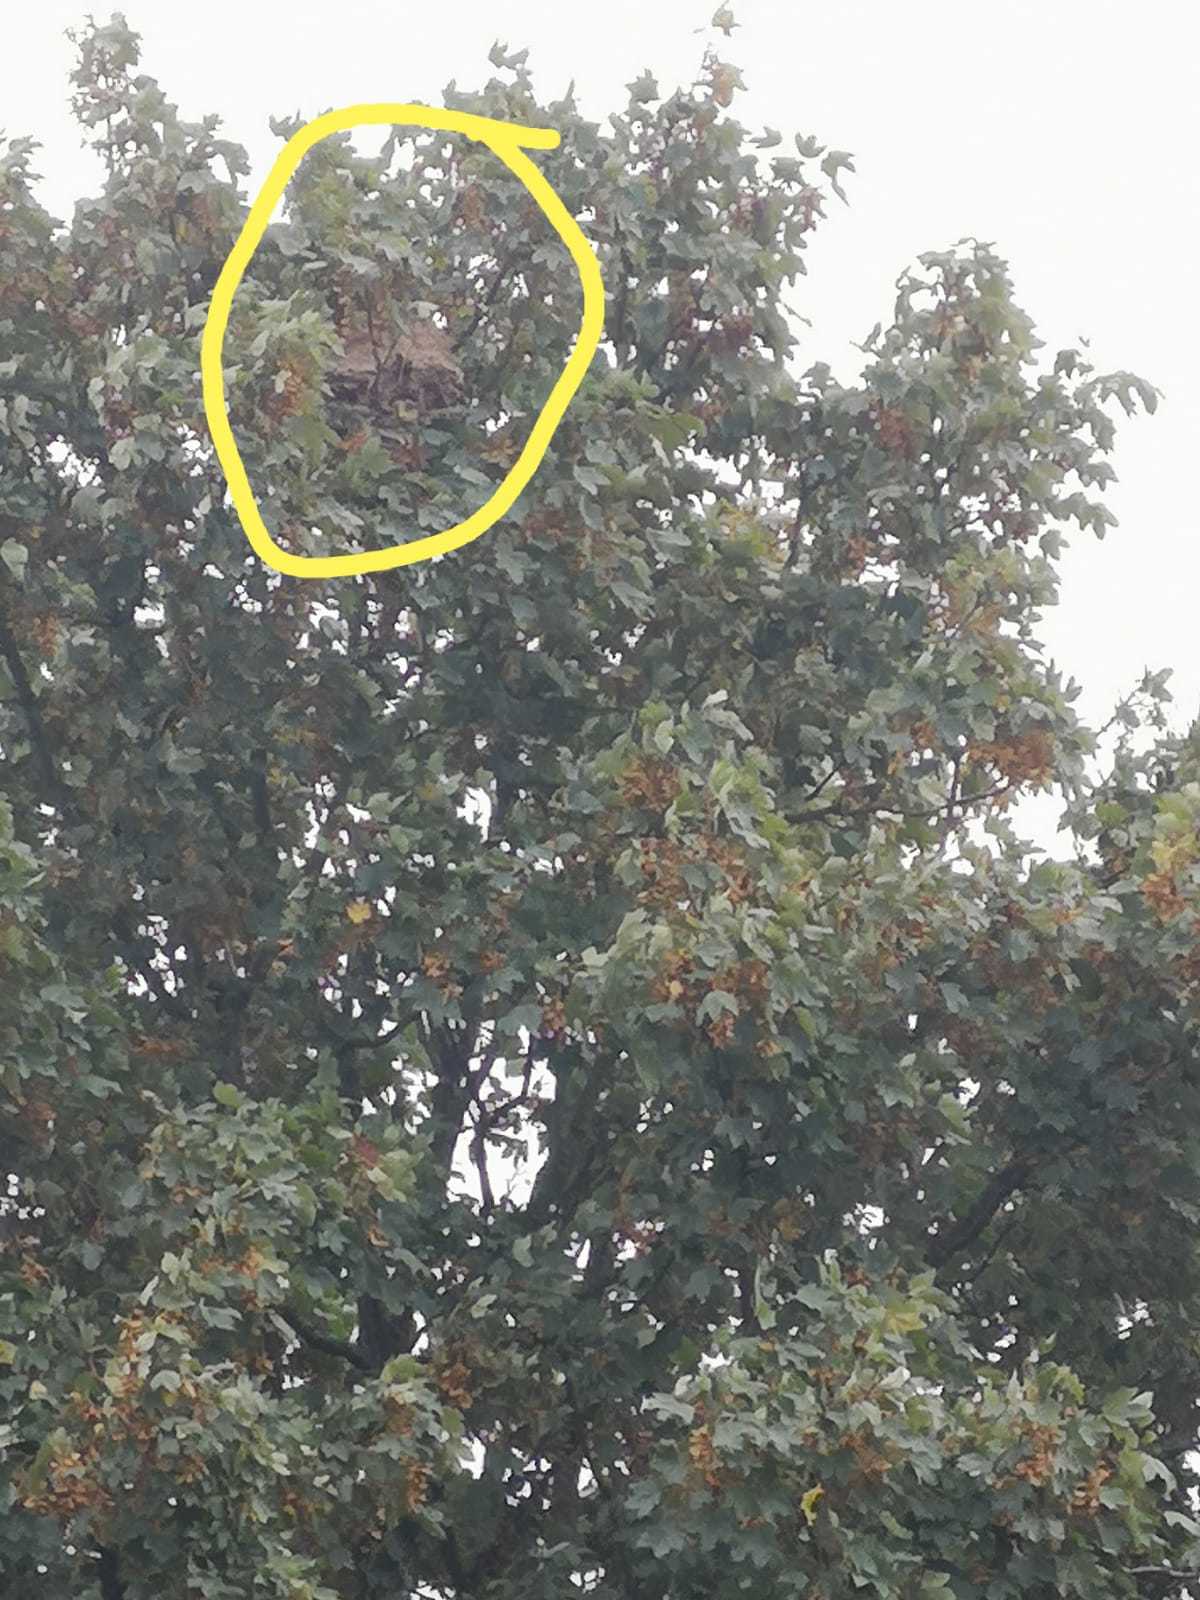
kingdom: Animalia
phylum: Arthropoda
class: Insecta
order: Hymenoptera
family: Vespidae
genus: Vespa
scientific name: Vespa velutina
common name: Asian hornet
